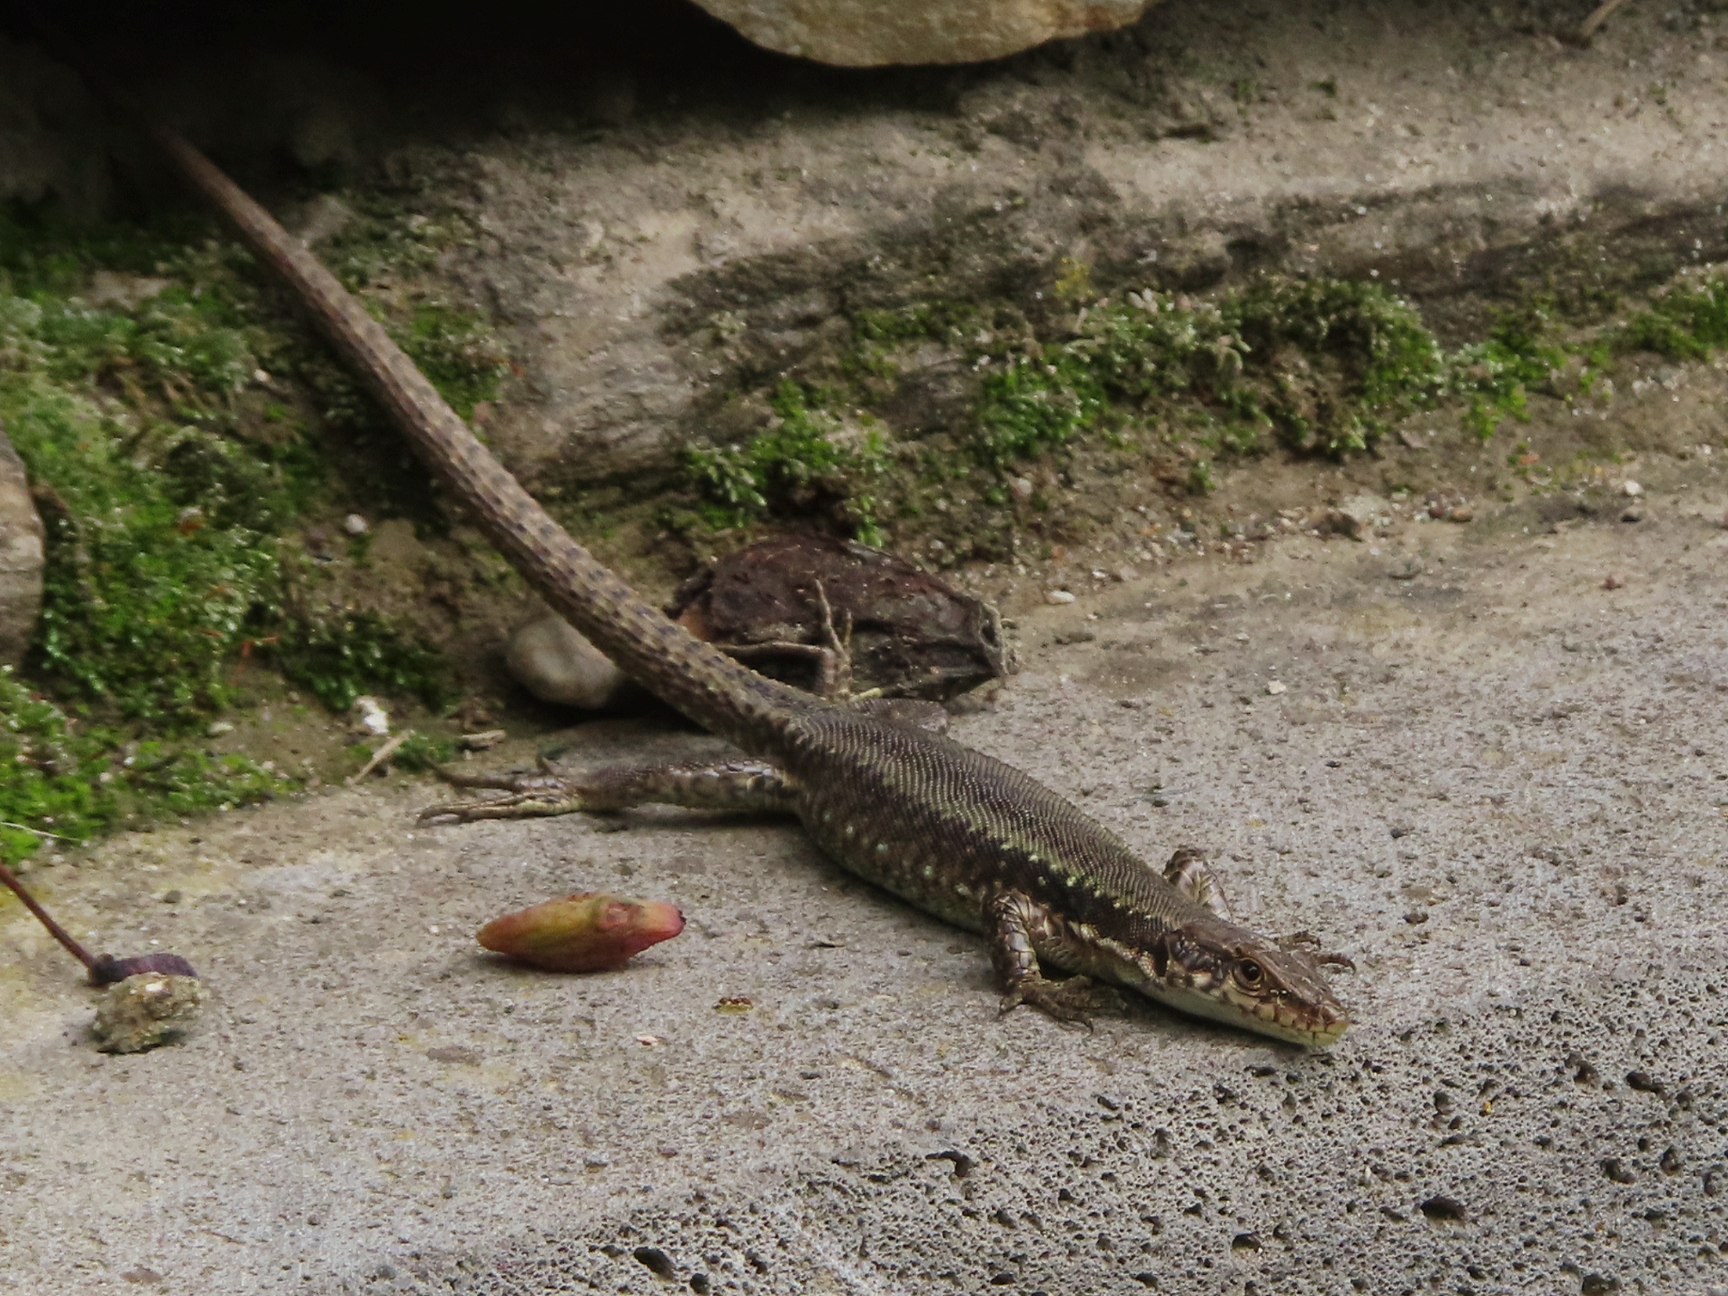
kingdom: Animalia
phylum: Chordata
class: Squamata
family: Lacertidae
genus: Darevskia
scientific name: Darevskia armeniaca
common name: Armenian lizard
